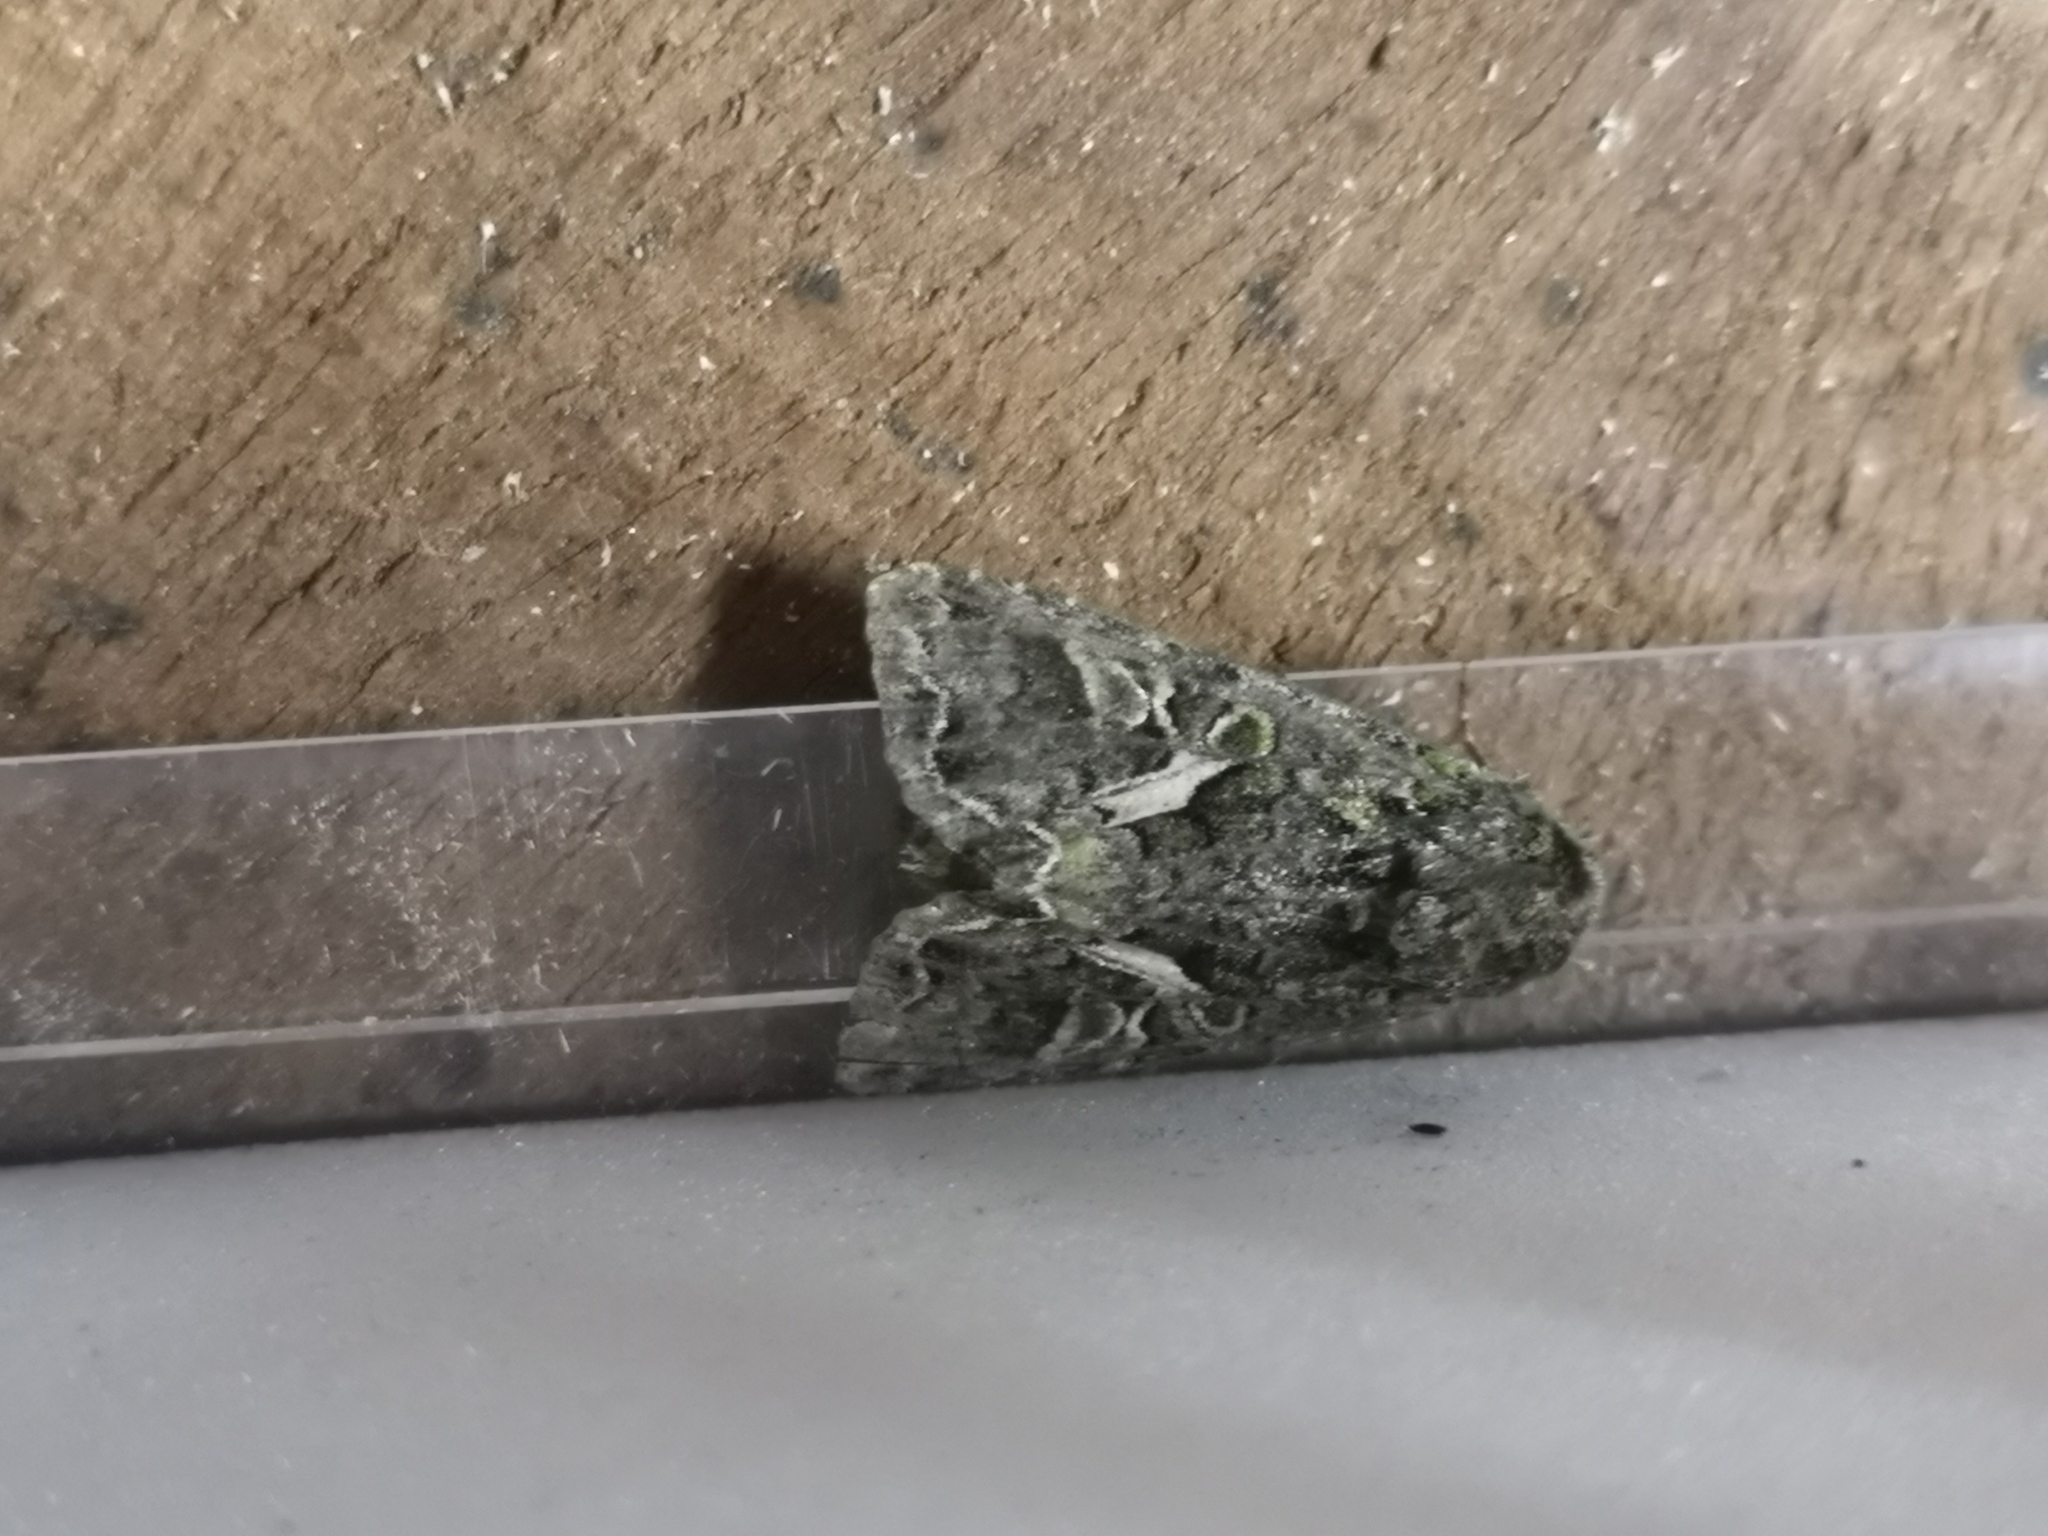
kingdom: Animalia
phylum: Arthropoda
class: Insecta
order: Lepidoptera
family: Noctuidae
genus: Trachea
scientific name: Trachea atriplicis
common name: Orache moth
